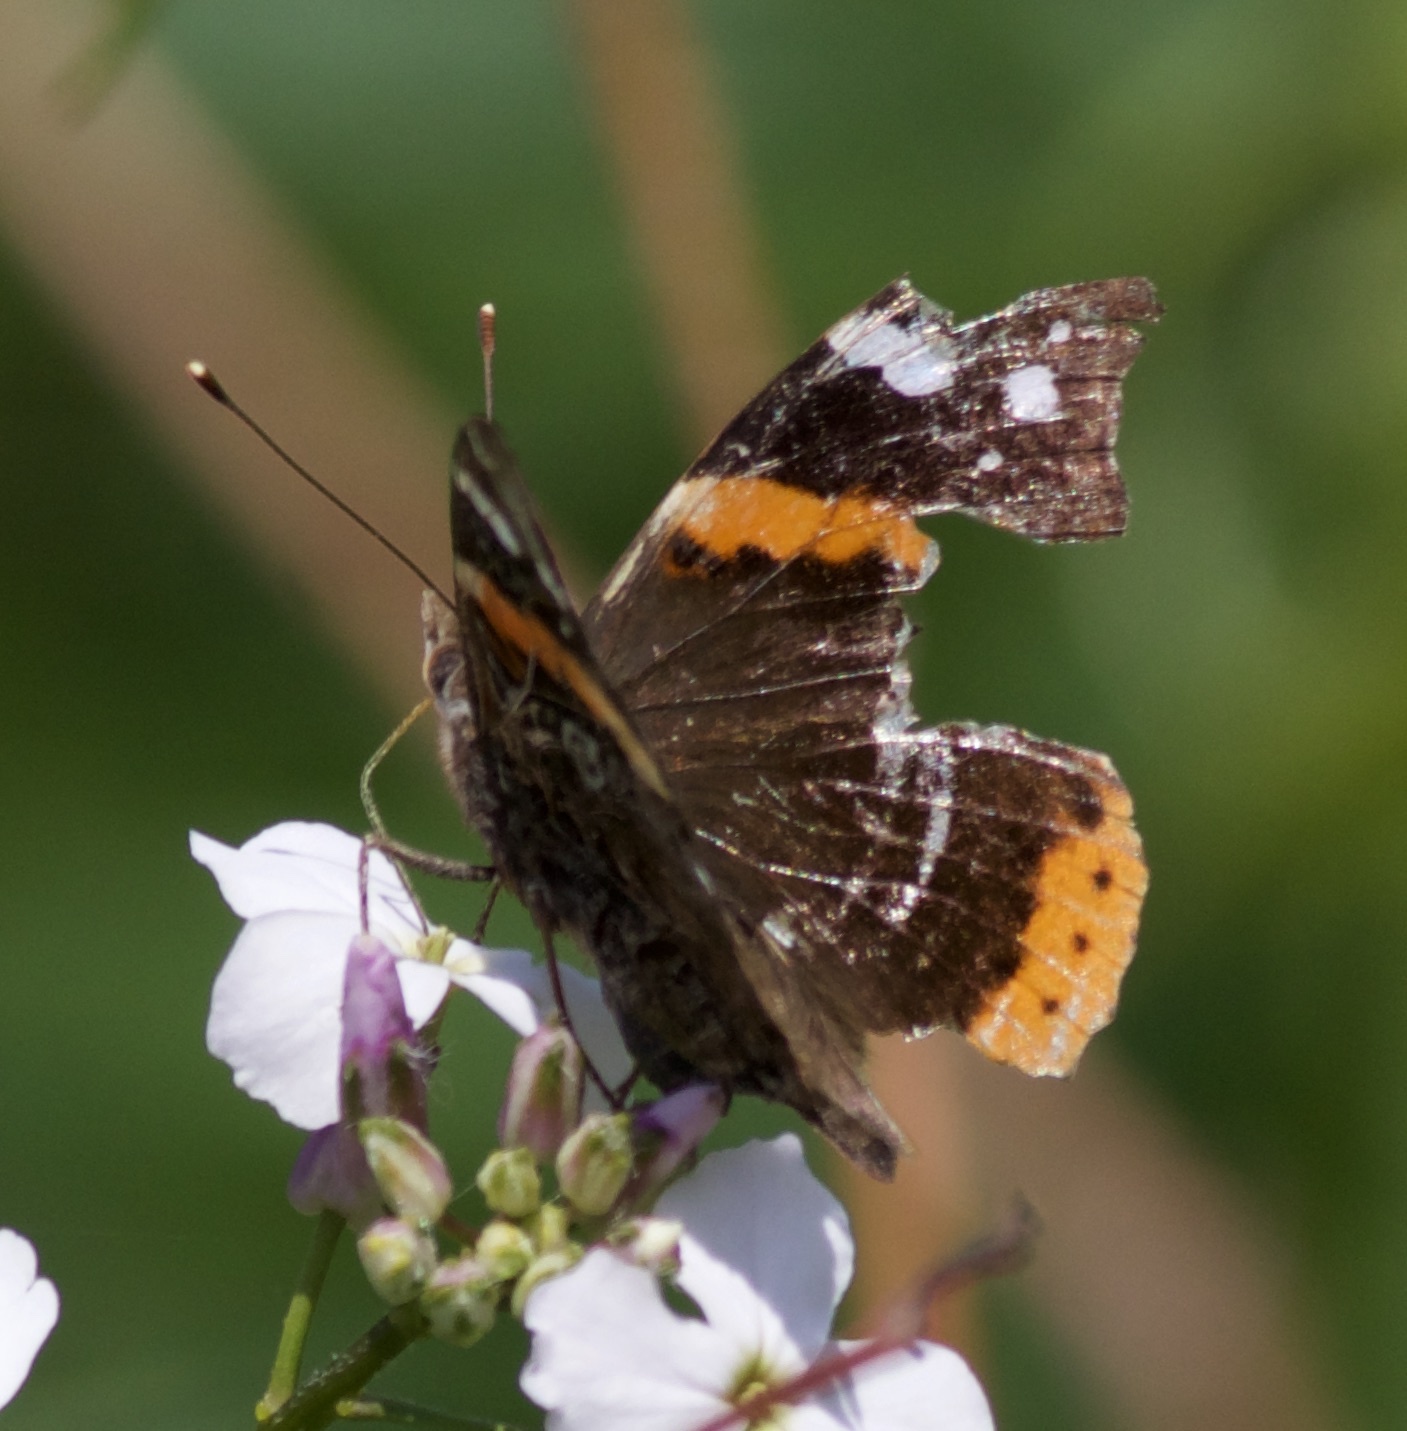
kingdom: Animalia
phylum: Arthropoda
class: Insecta
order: Lepidoptera
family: Nymphalidae
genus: Vanessa
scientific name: Vanessa atalanta
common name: Red admiral
